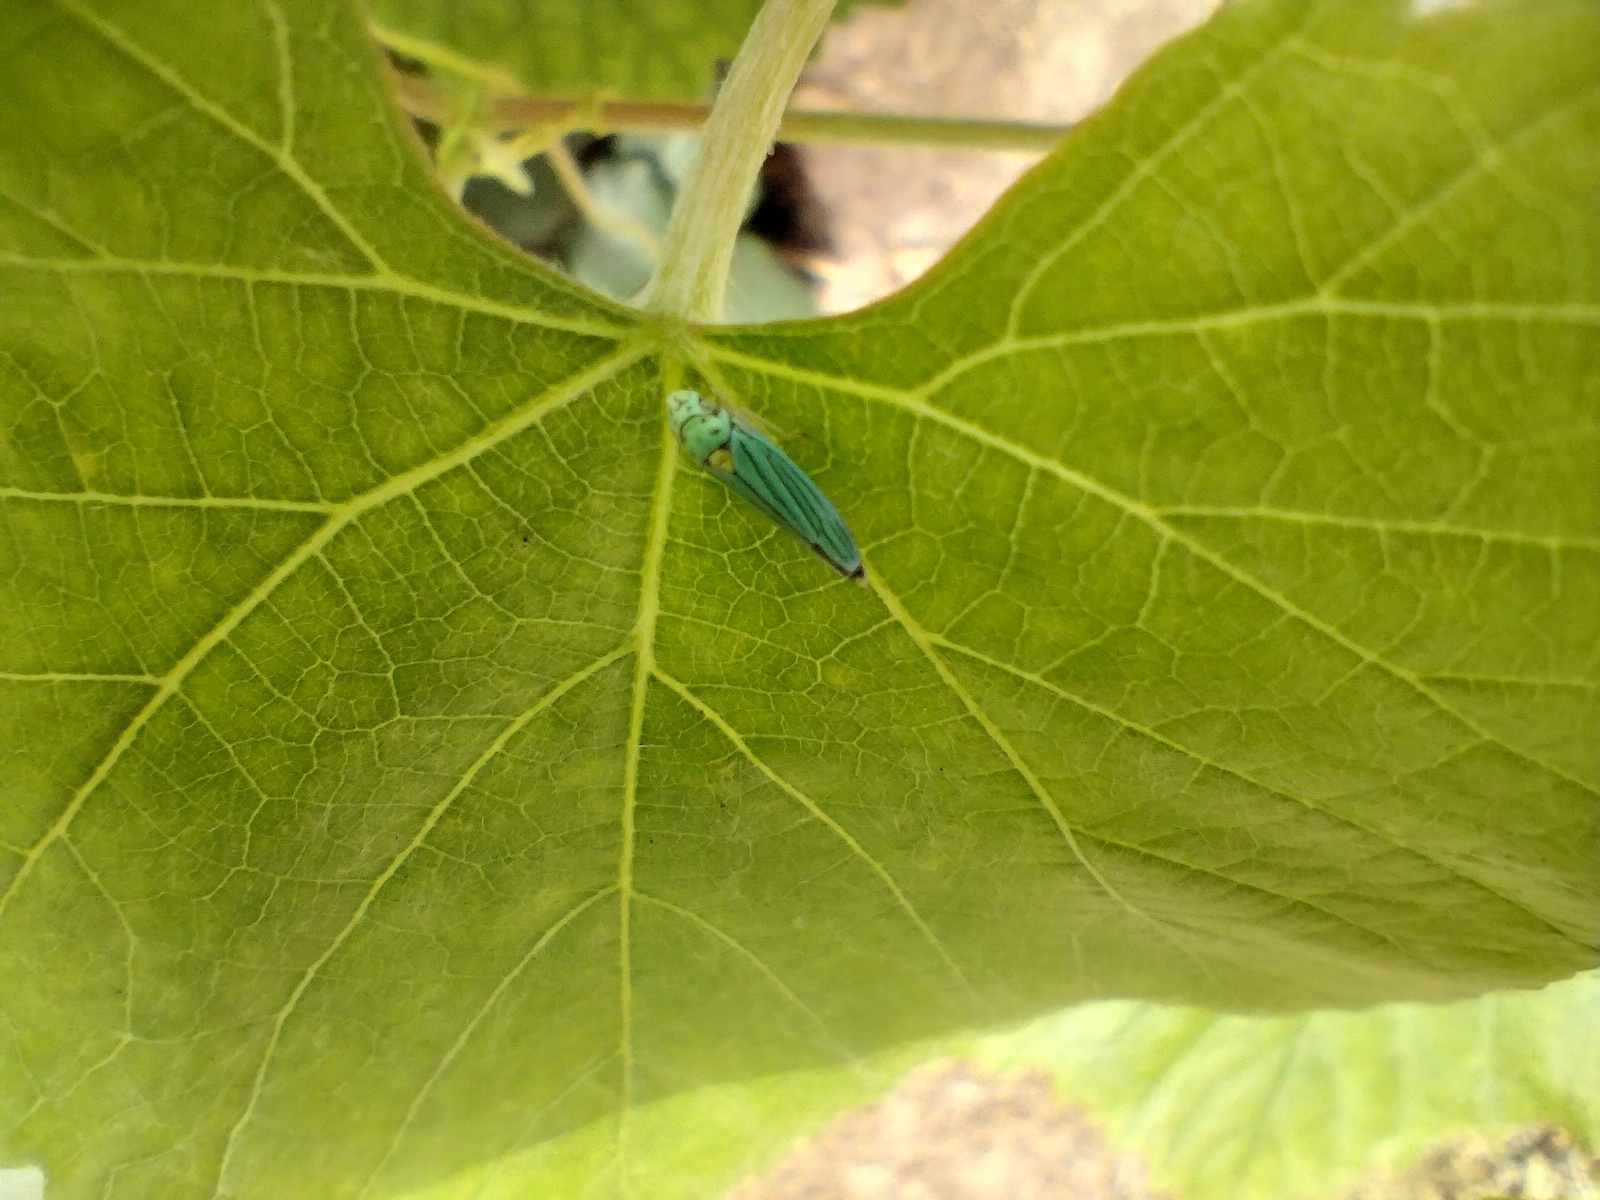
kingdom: Animalia
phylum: Arthropoda
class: Insecta
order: Hemiptera
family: Cicadellidae
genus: Graphocephala
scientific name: Graphocephala atropunctata
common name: Blue-green sharpshooter
